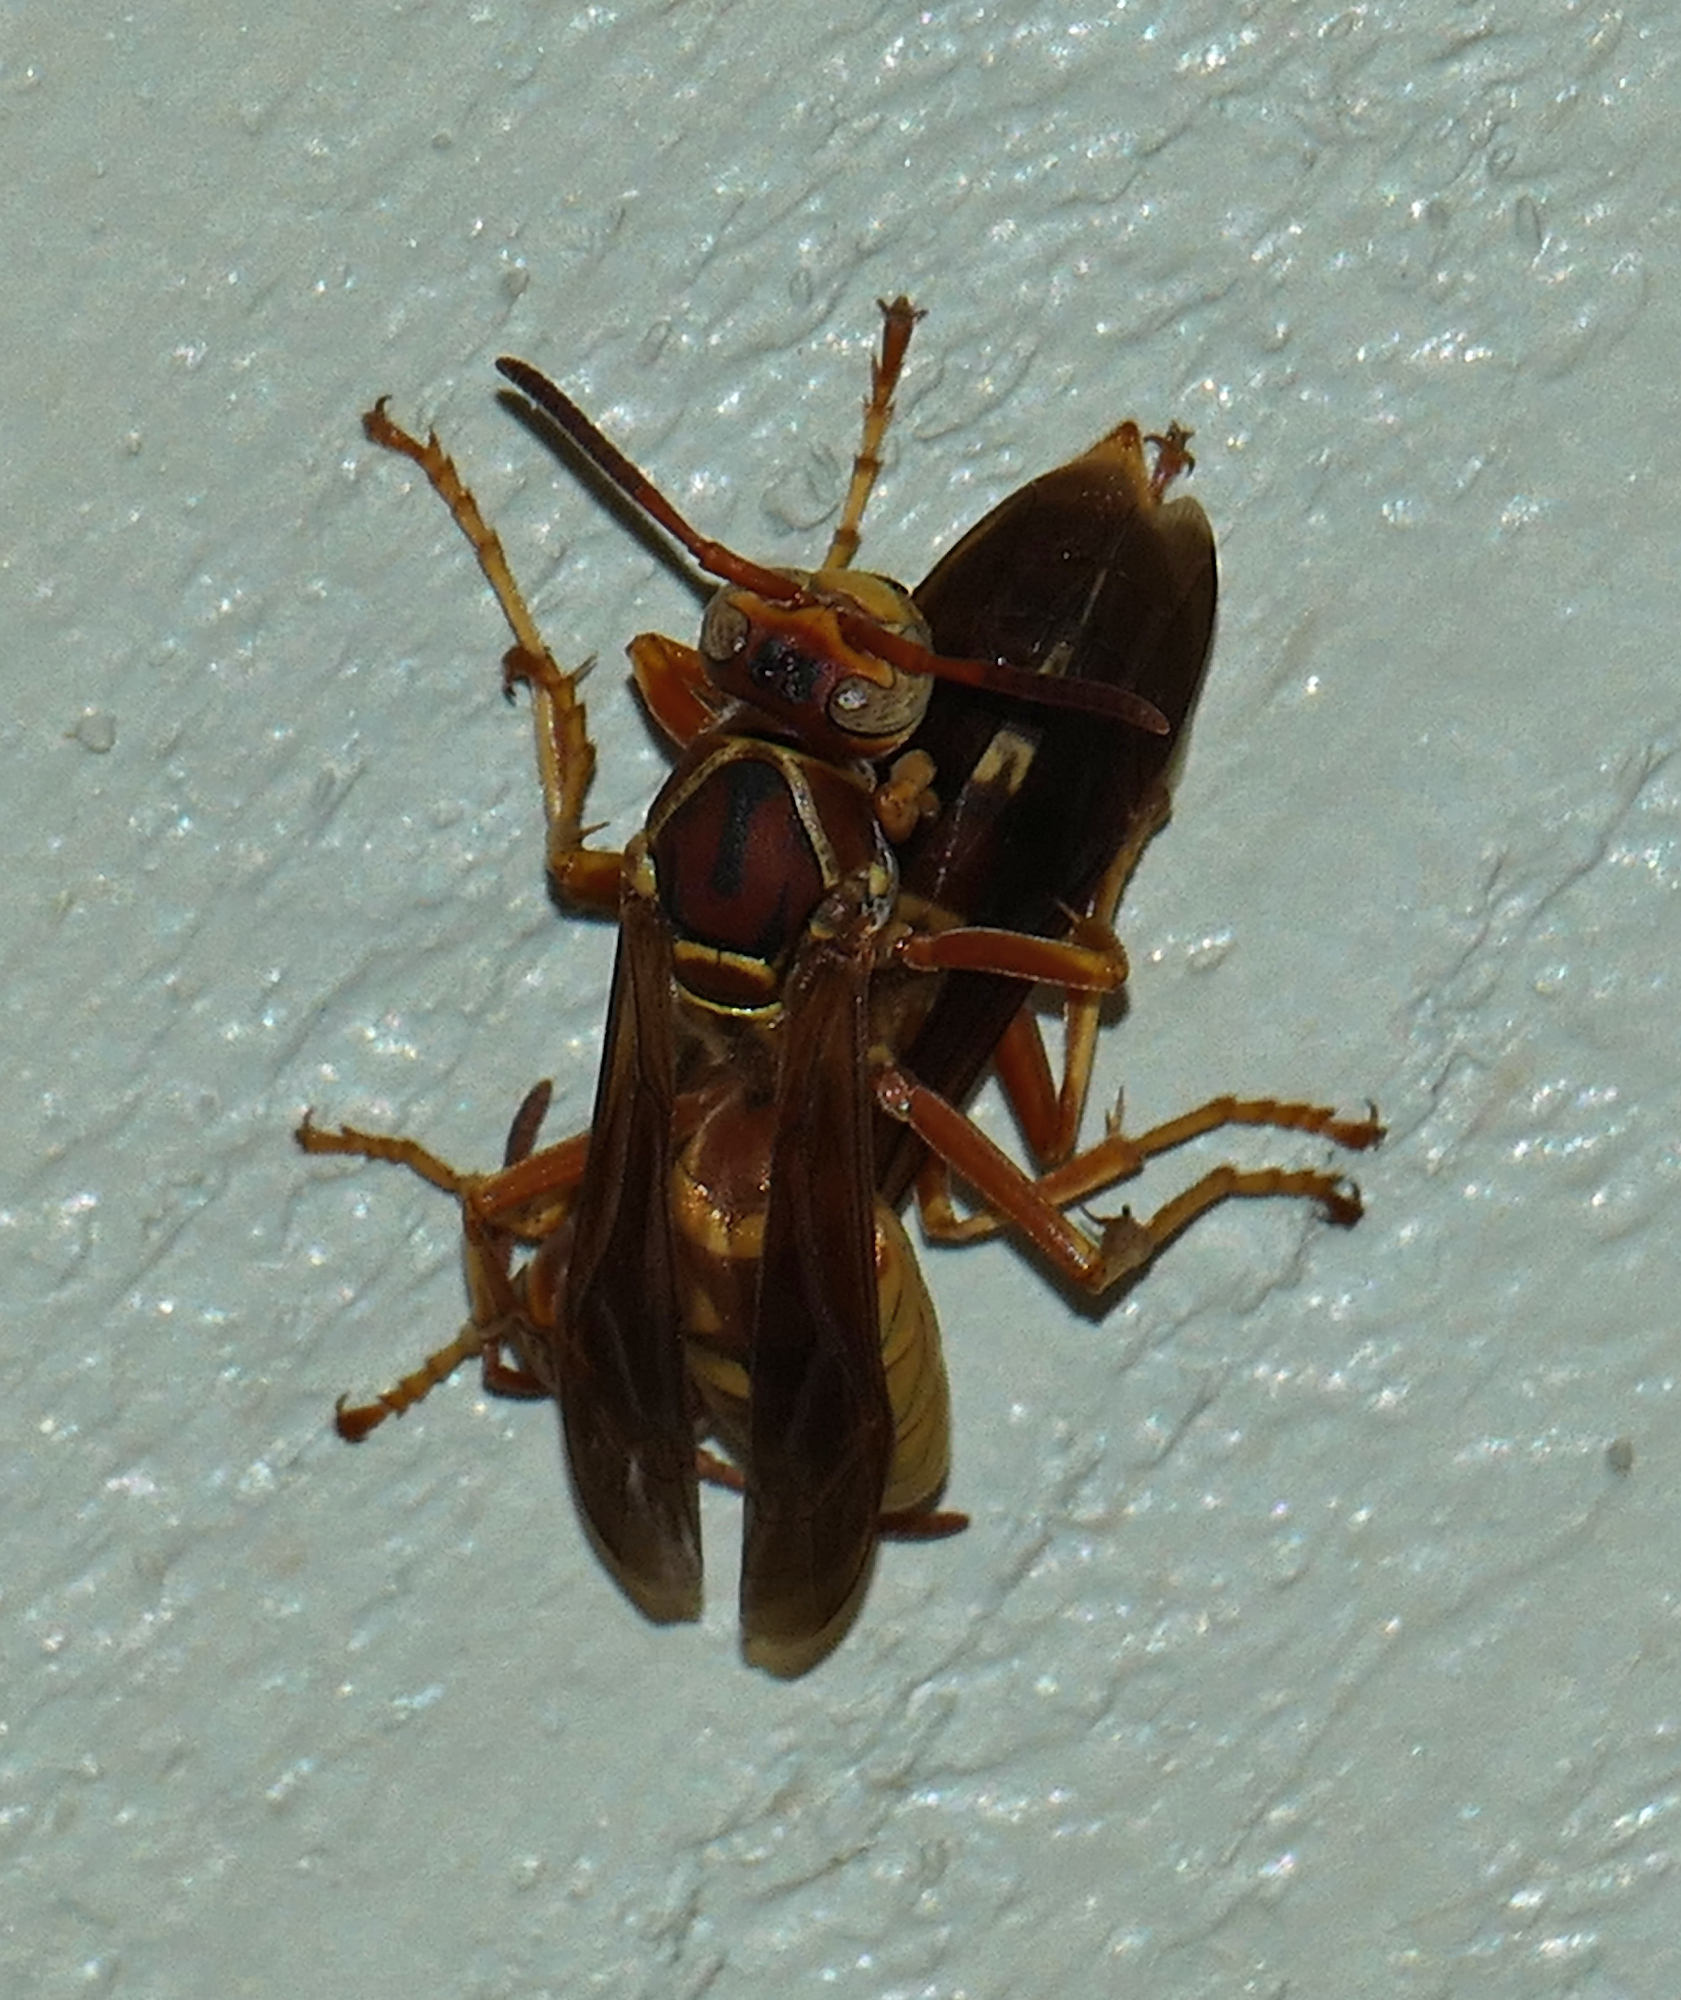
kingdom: Animalia
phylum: Arthropoda
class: Insecta
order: Hymenoptera
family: Eumenidae
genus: Polistes
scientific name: Polistes aurifer
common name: Paper wasp
